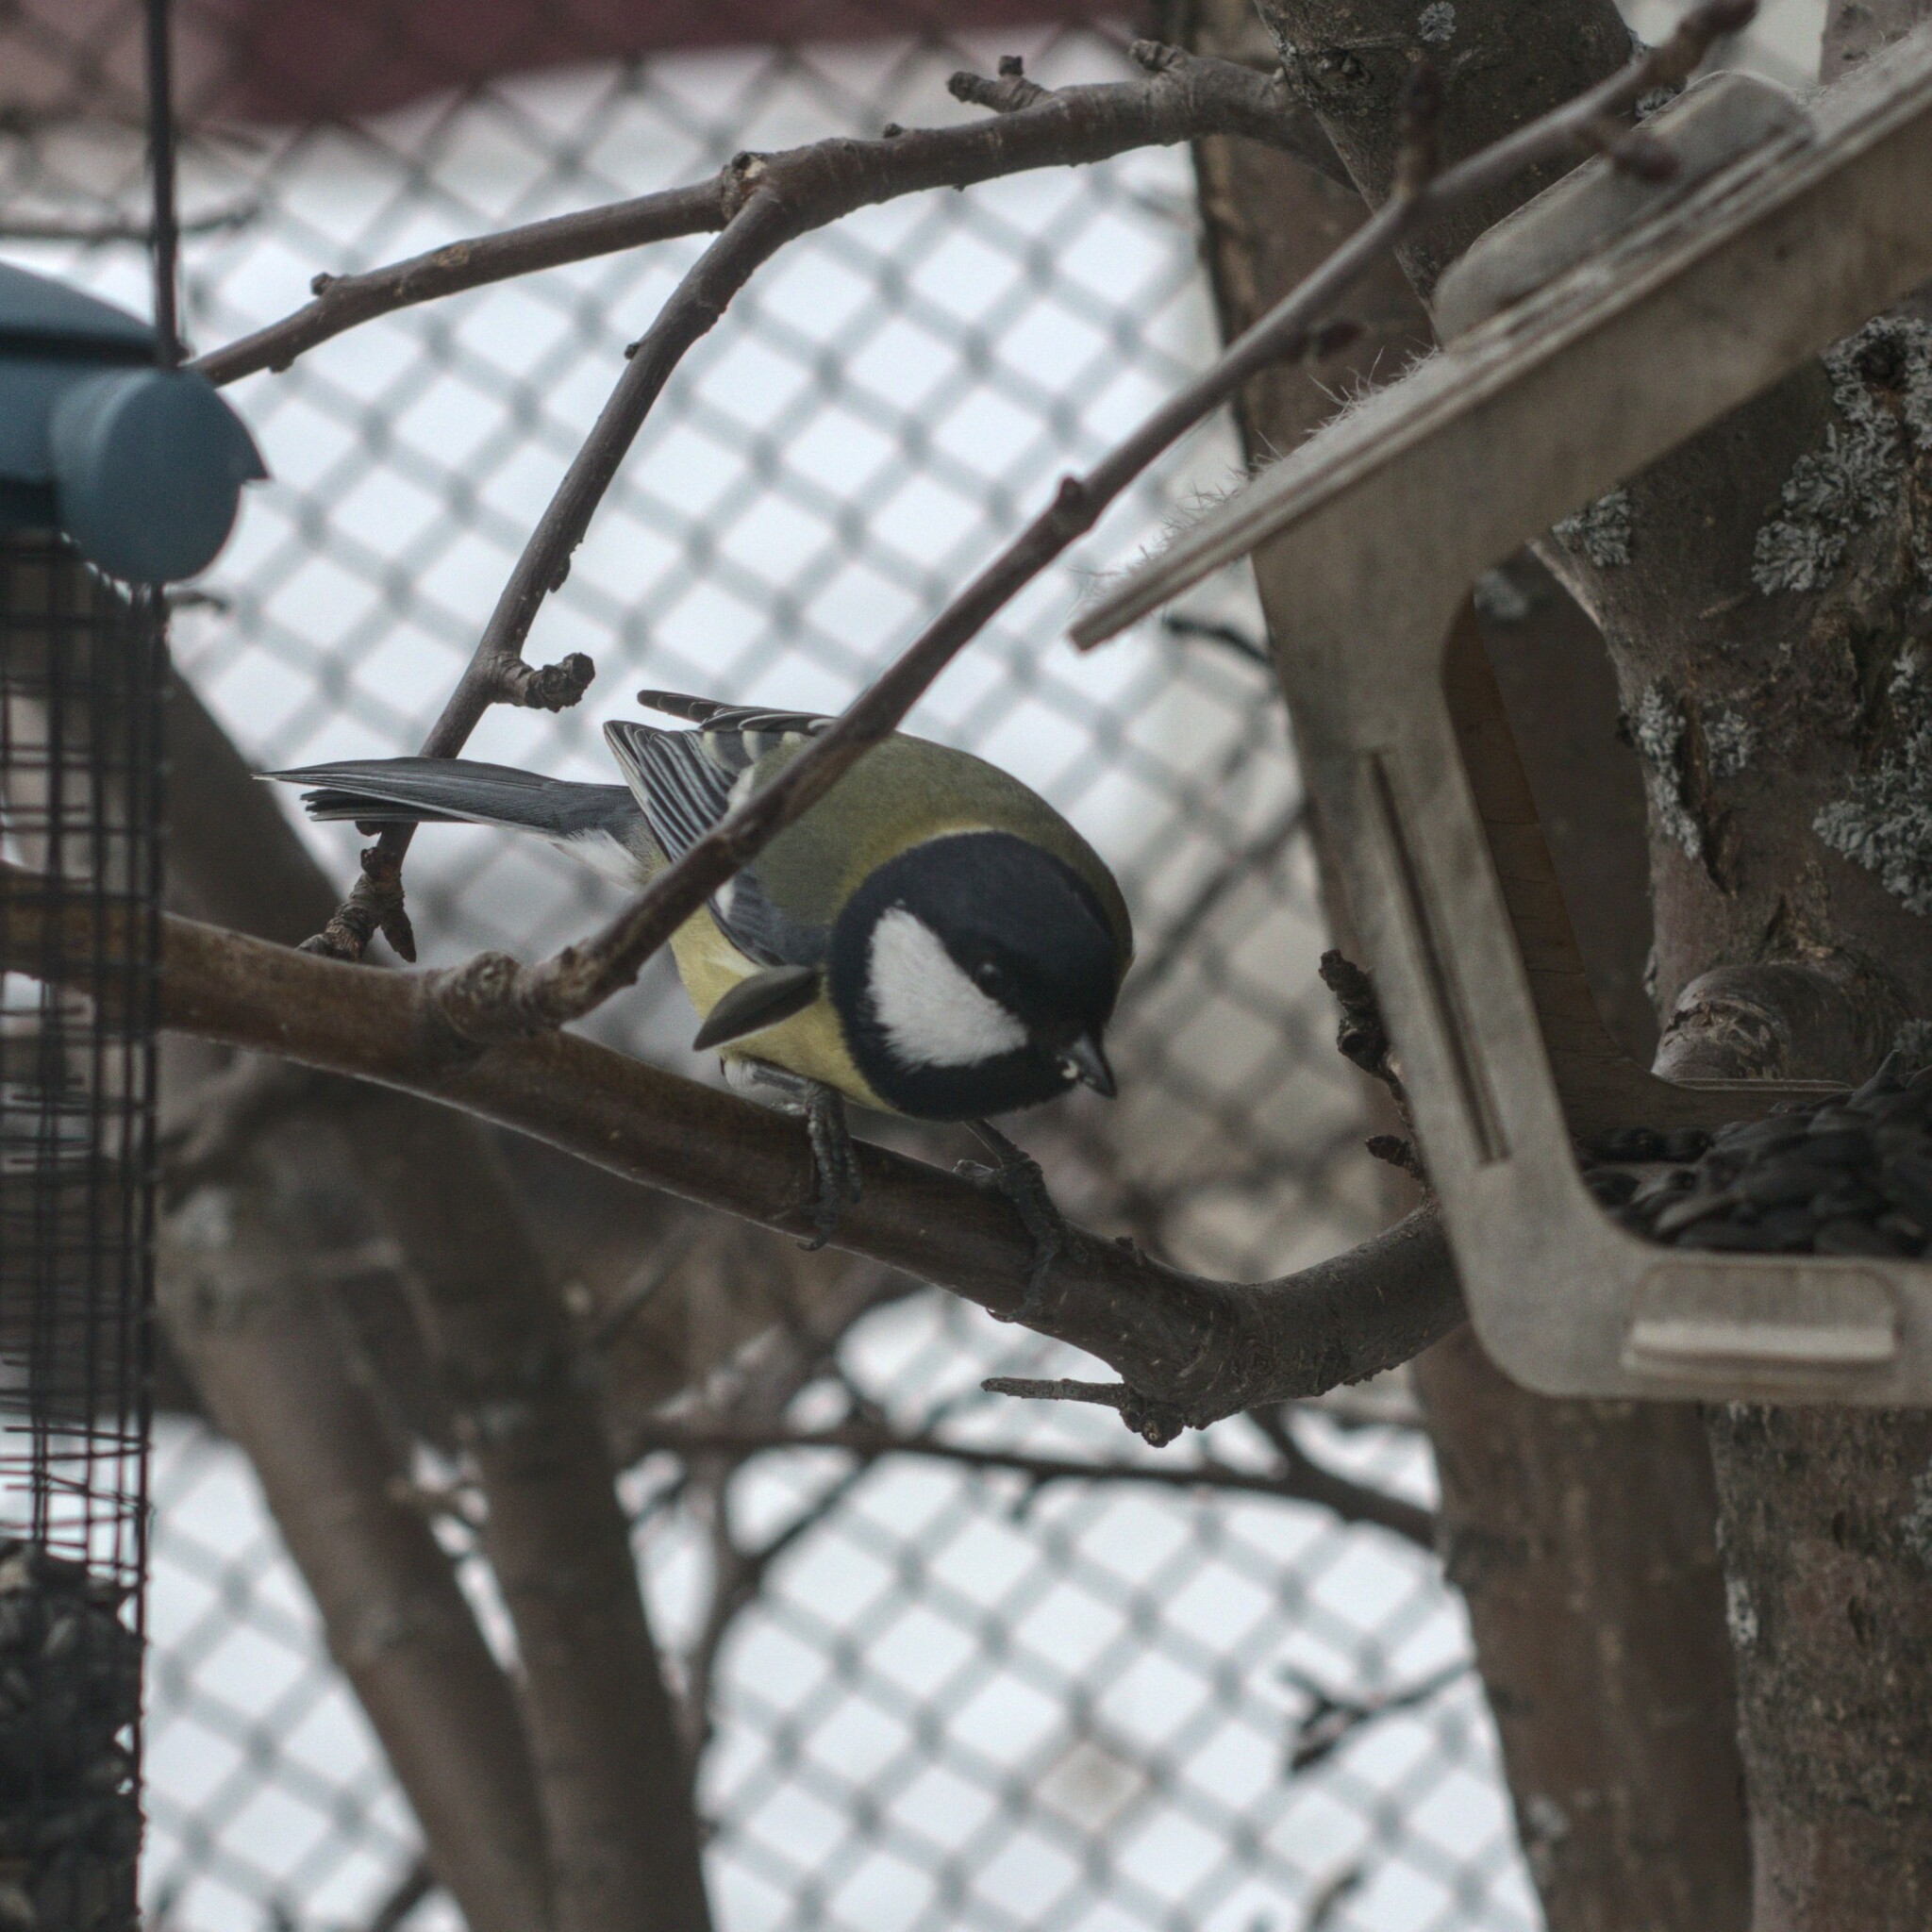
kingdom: Animalia
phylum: Chordata
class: Aves
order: Passeriformes
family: Paridae
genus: Parus
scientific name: Parus major
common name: Great tit
